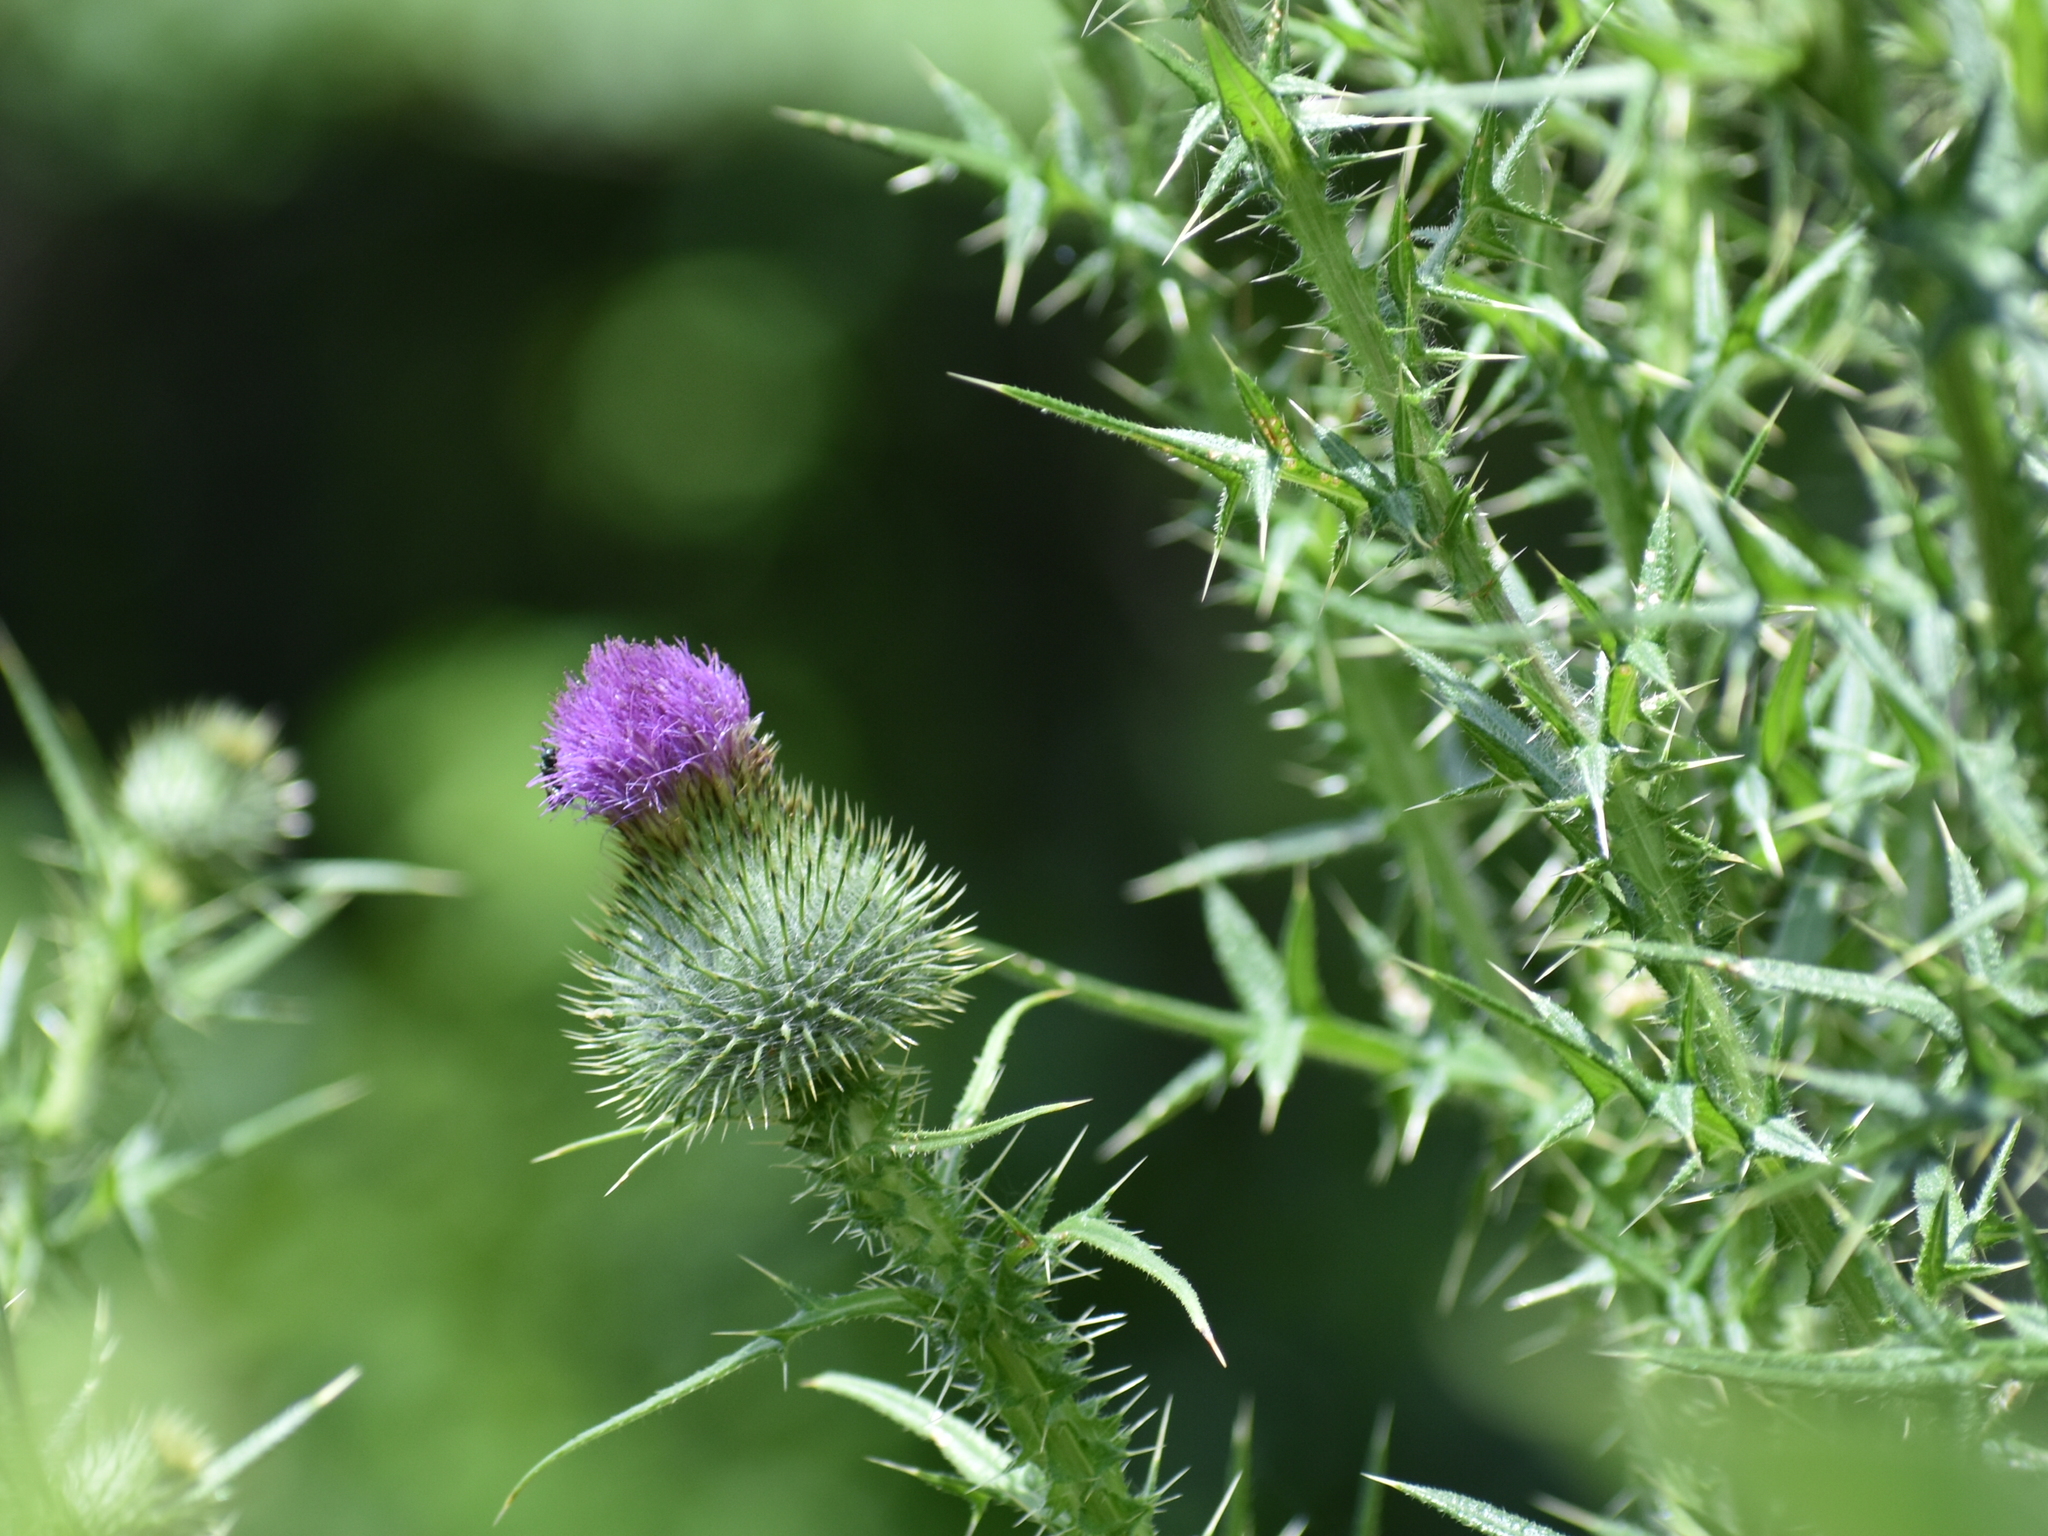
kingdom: Plantae
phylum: Tracheophyta
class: Magnoliopsida
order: Asterales
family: Asteraceae
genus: Cirsium
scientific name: Cirsium vulgare
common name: Bull thistle
